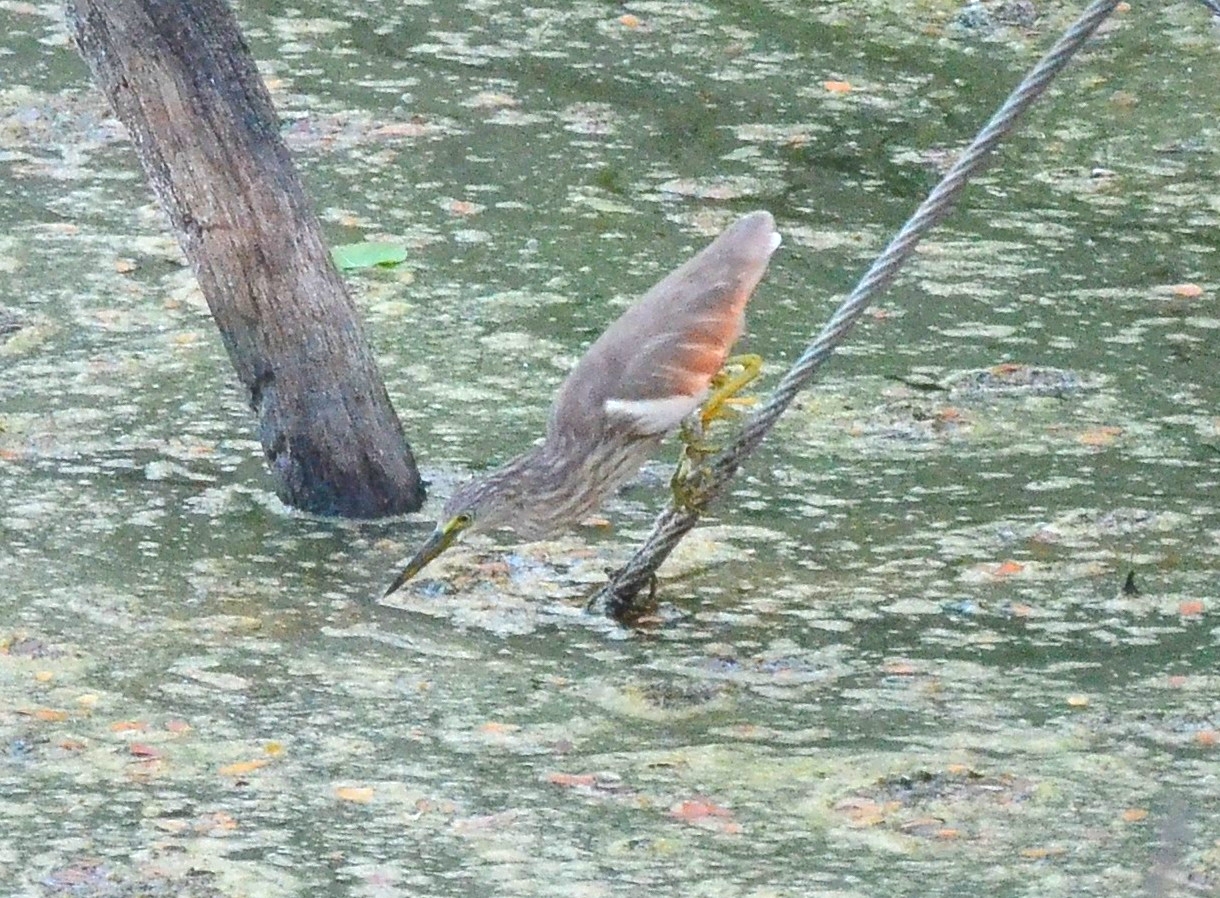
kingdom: Animalia
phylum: Chordata
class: Aves
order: Pelecaniformes
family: Ardeidae
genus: Ardeola
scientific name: Ardeola grayii
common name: Indian pond heron
